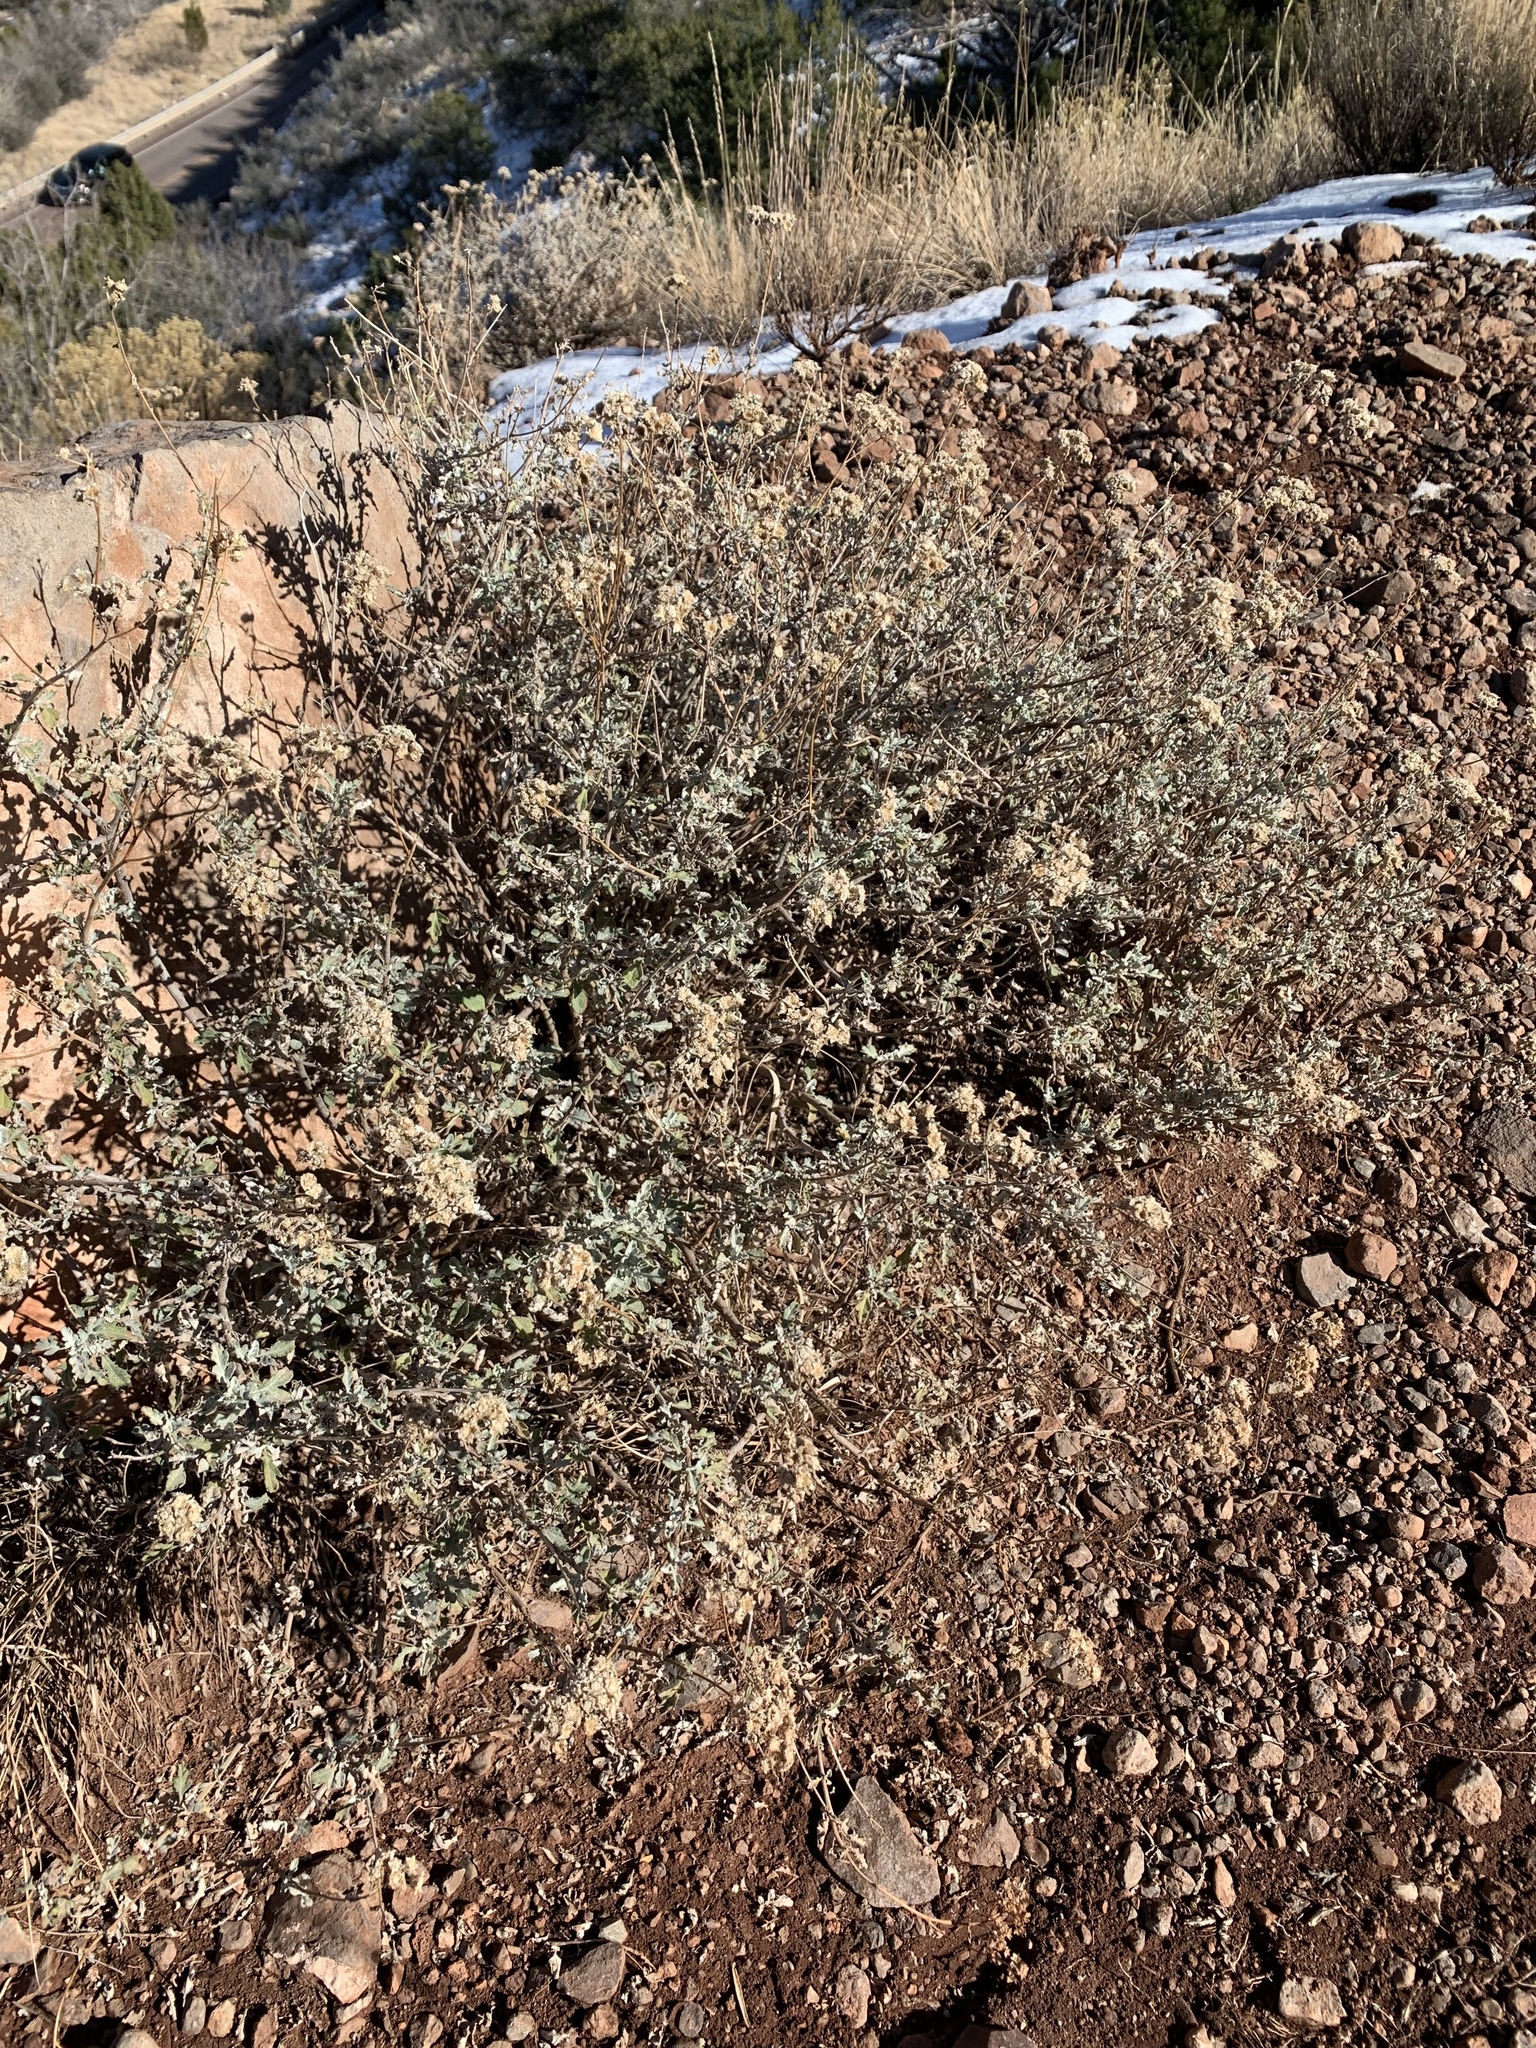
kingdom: Plantae
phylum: Tracheophyta
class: Magnoliopsida
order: Asterales
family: Asteraceae
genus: Parthenium
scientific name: Parthenium incanum
